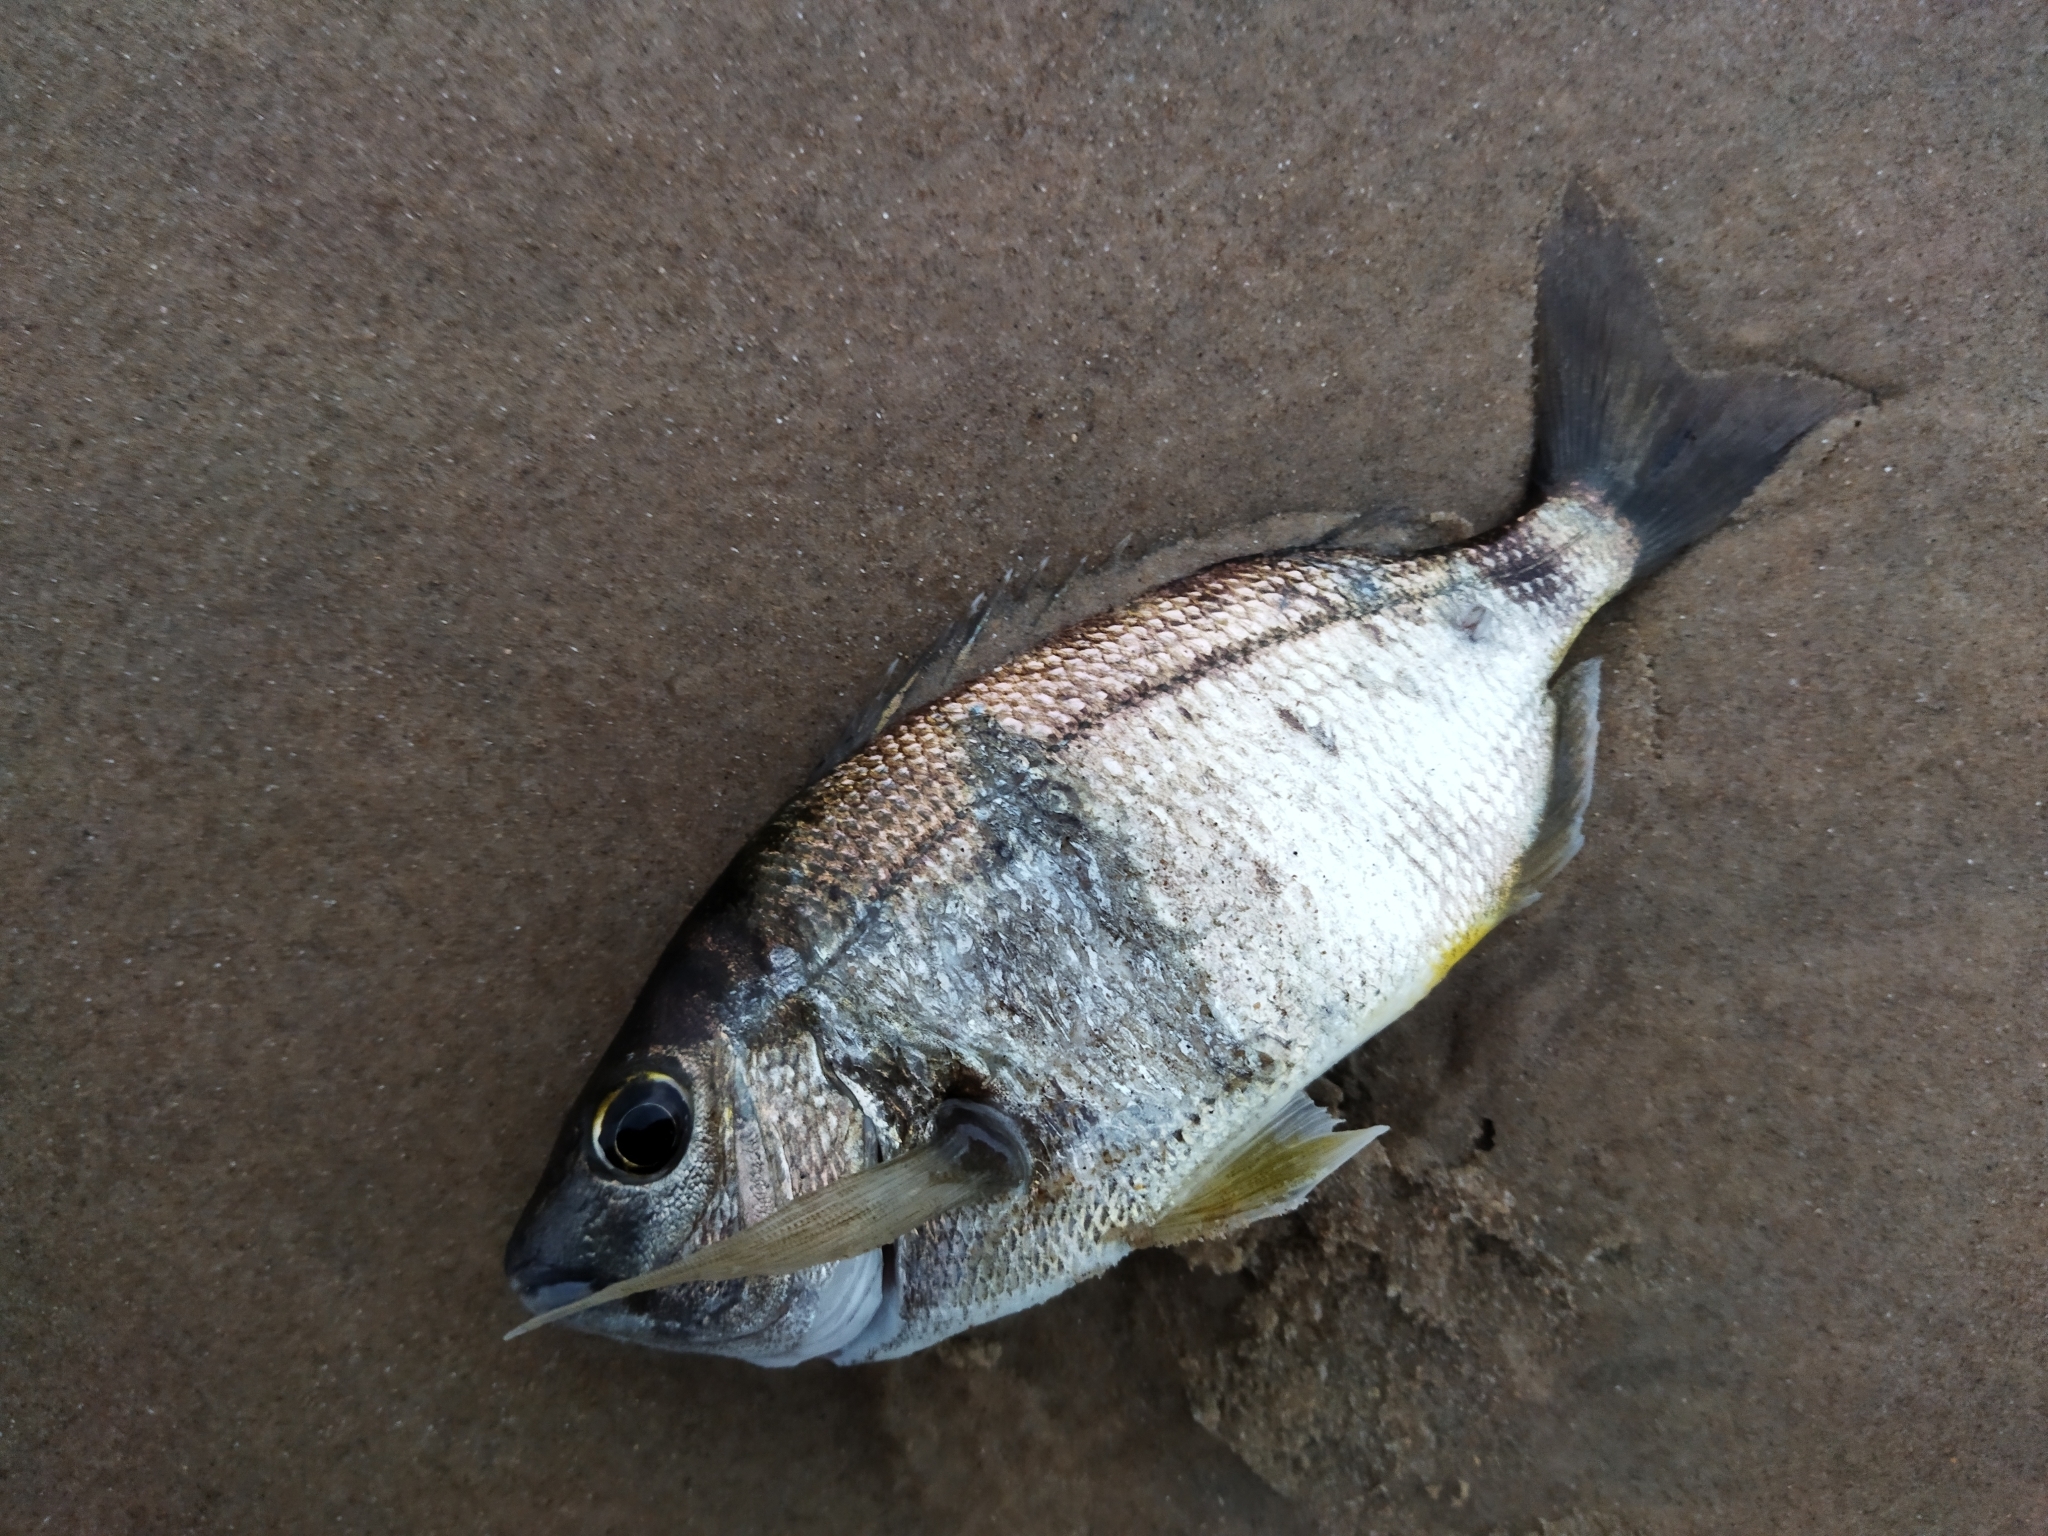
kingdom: Animalia
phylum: Chordata
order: Perciformes
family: Sparidae
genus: Diplodus
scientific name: Diplodus annularis
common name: Annular seabream
